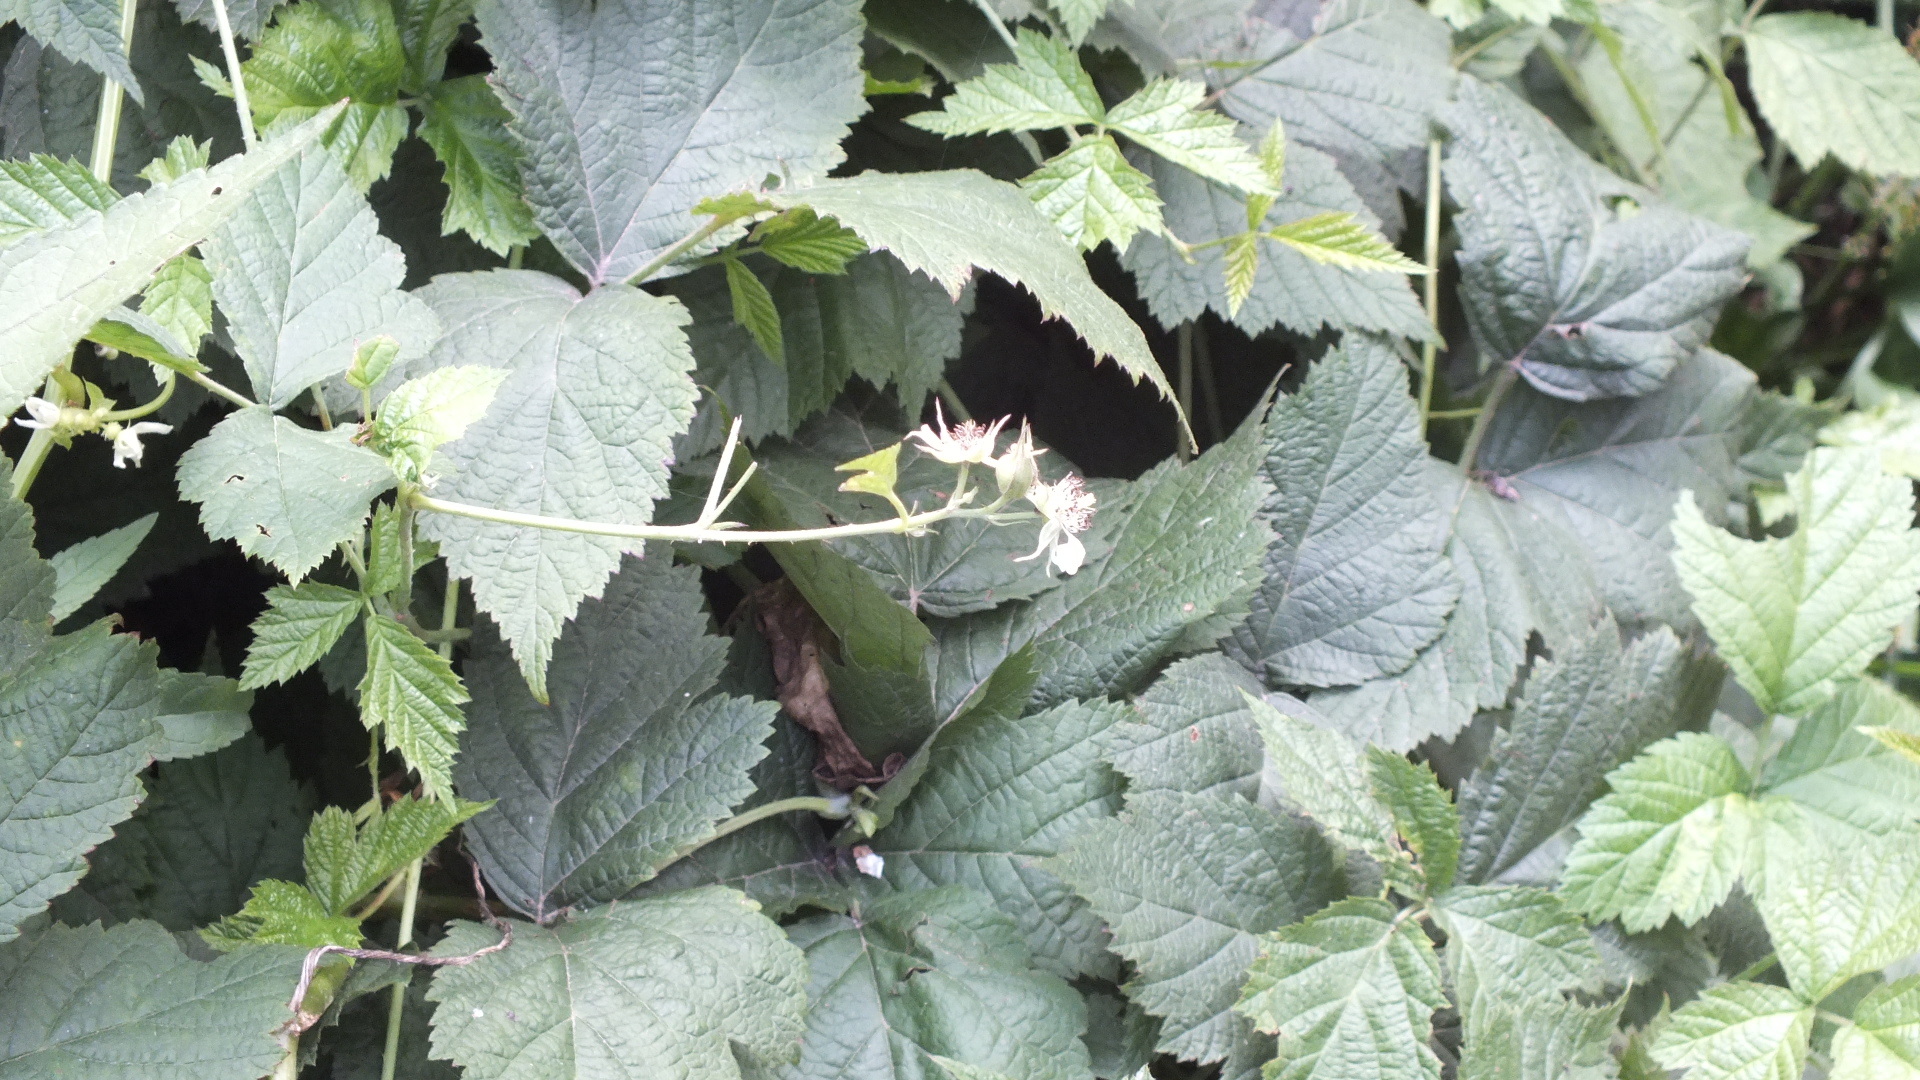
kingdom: Plantae
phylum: Tracheophyta
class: Magnoliopsida
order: Rosales
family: Rosaceae
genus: Rubus
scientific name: Rubus caesius
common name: Dewberry
